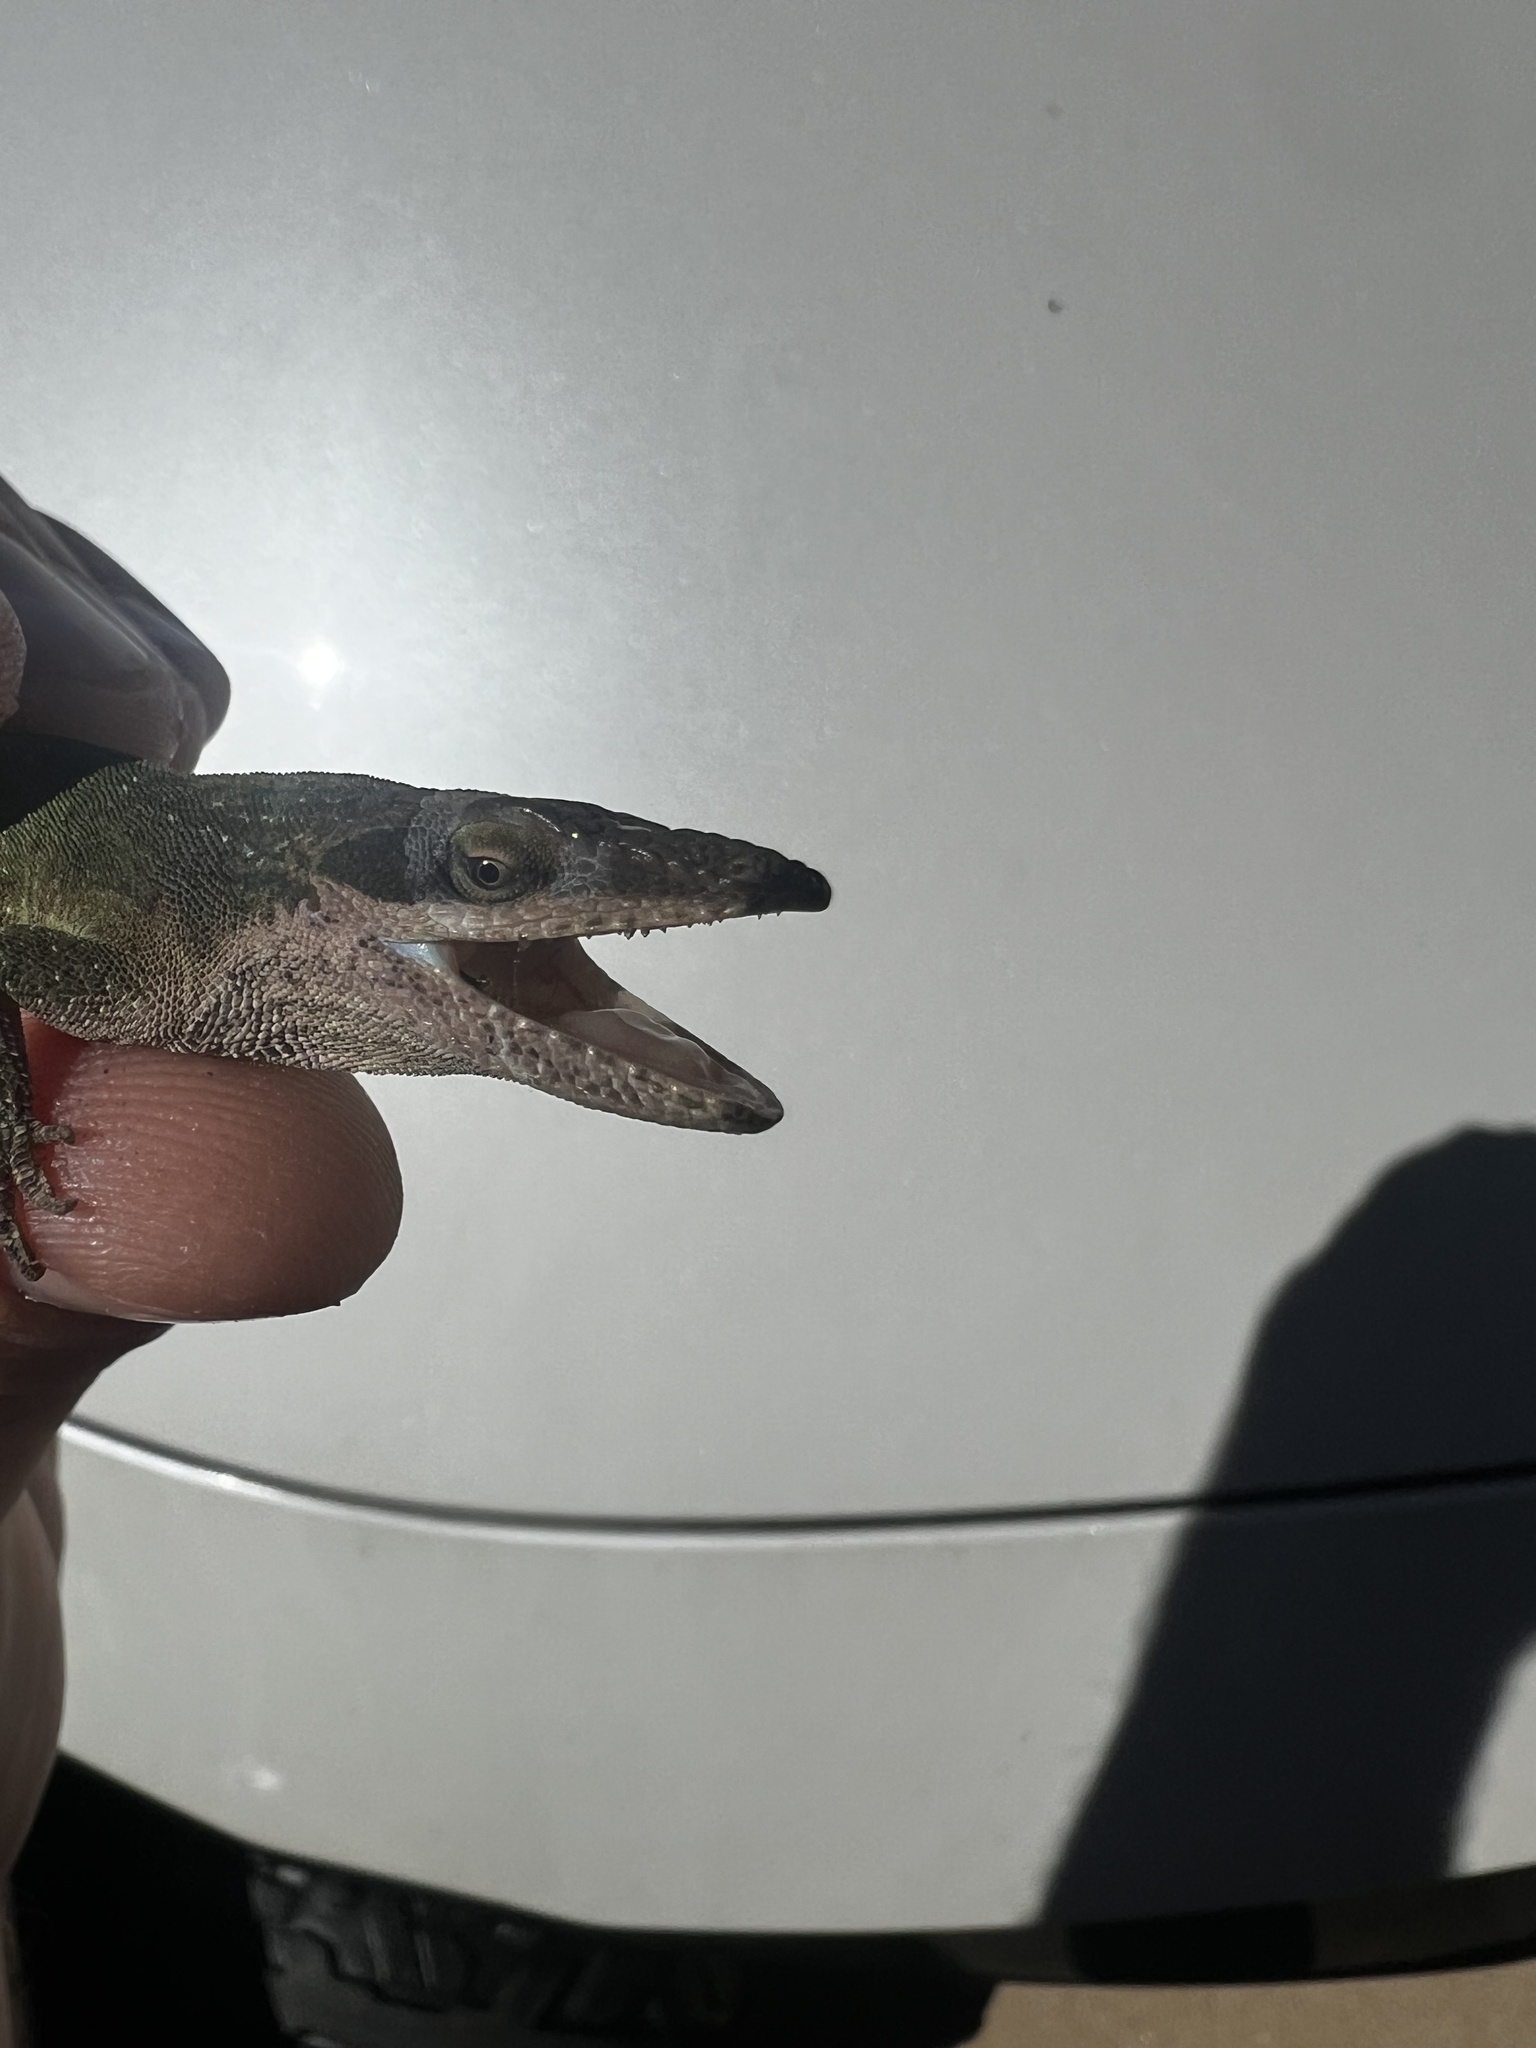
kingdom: Animalia
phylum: Chordata
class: Squamata
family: Dactyloidae
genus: Anolis
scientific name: Anolis carolinensis
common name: Green anole
